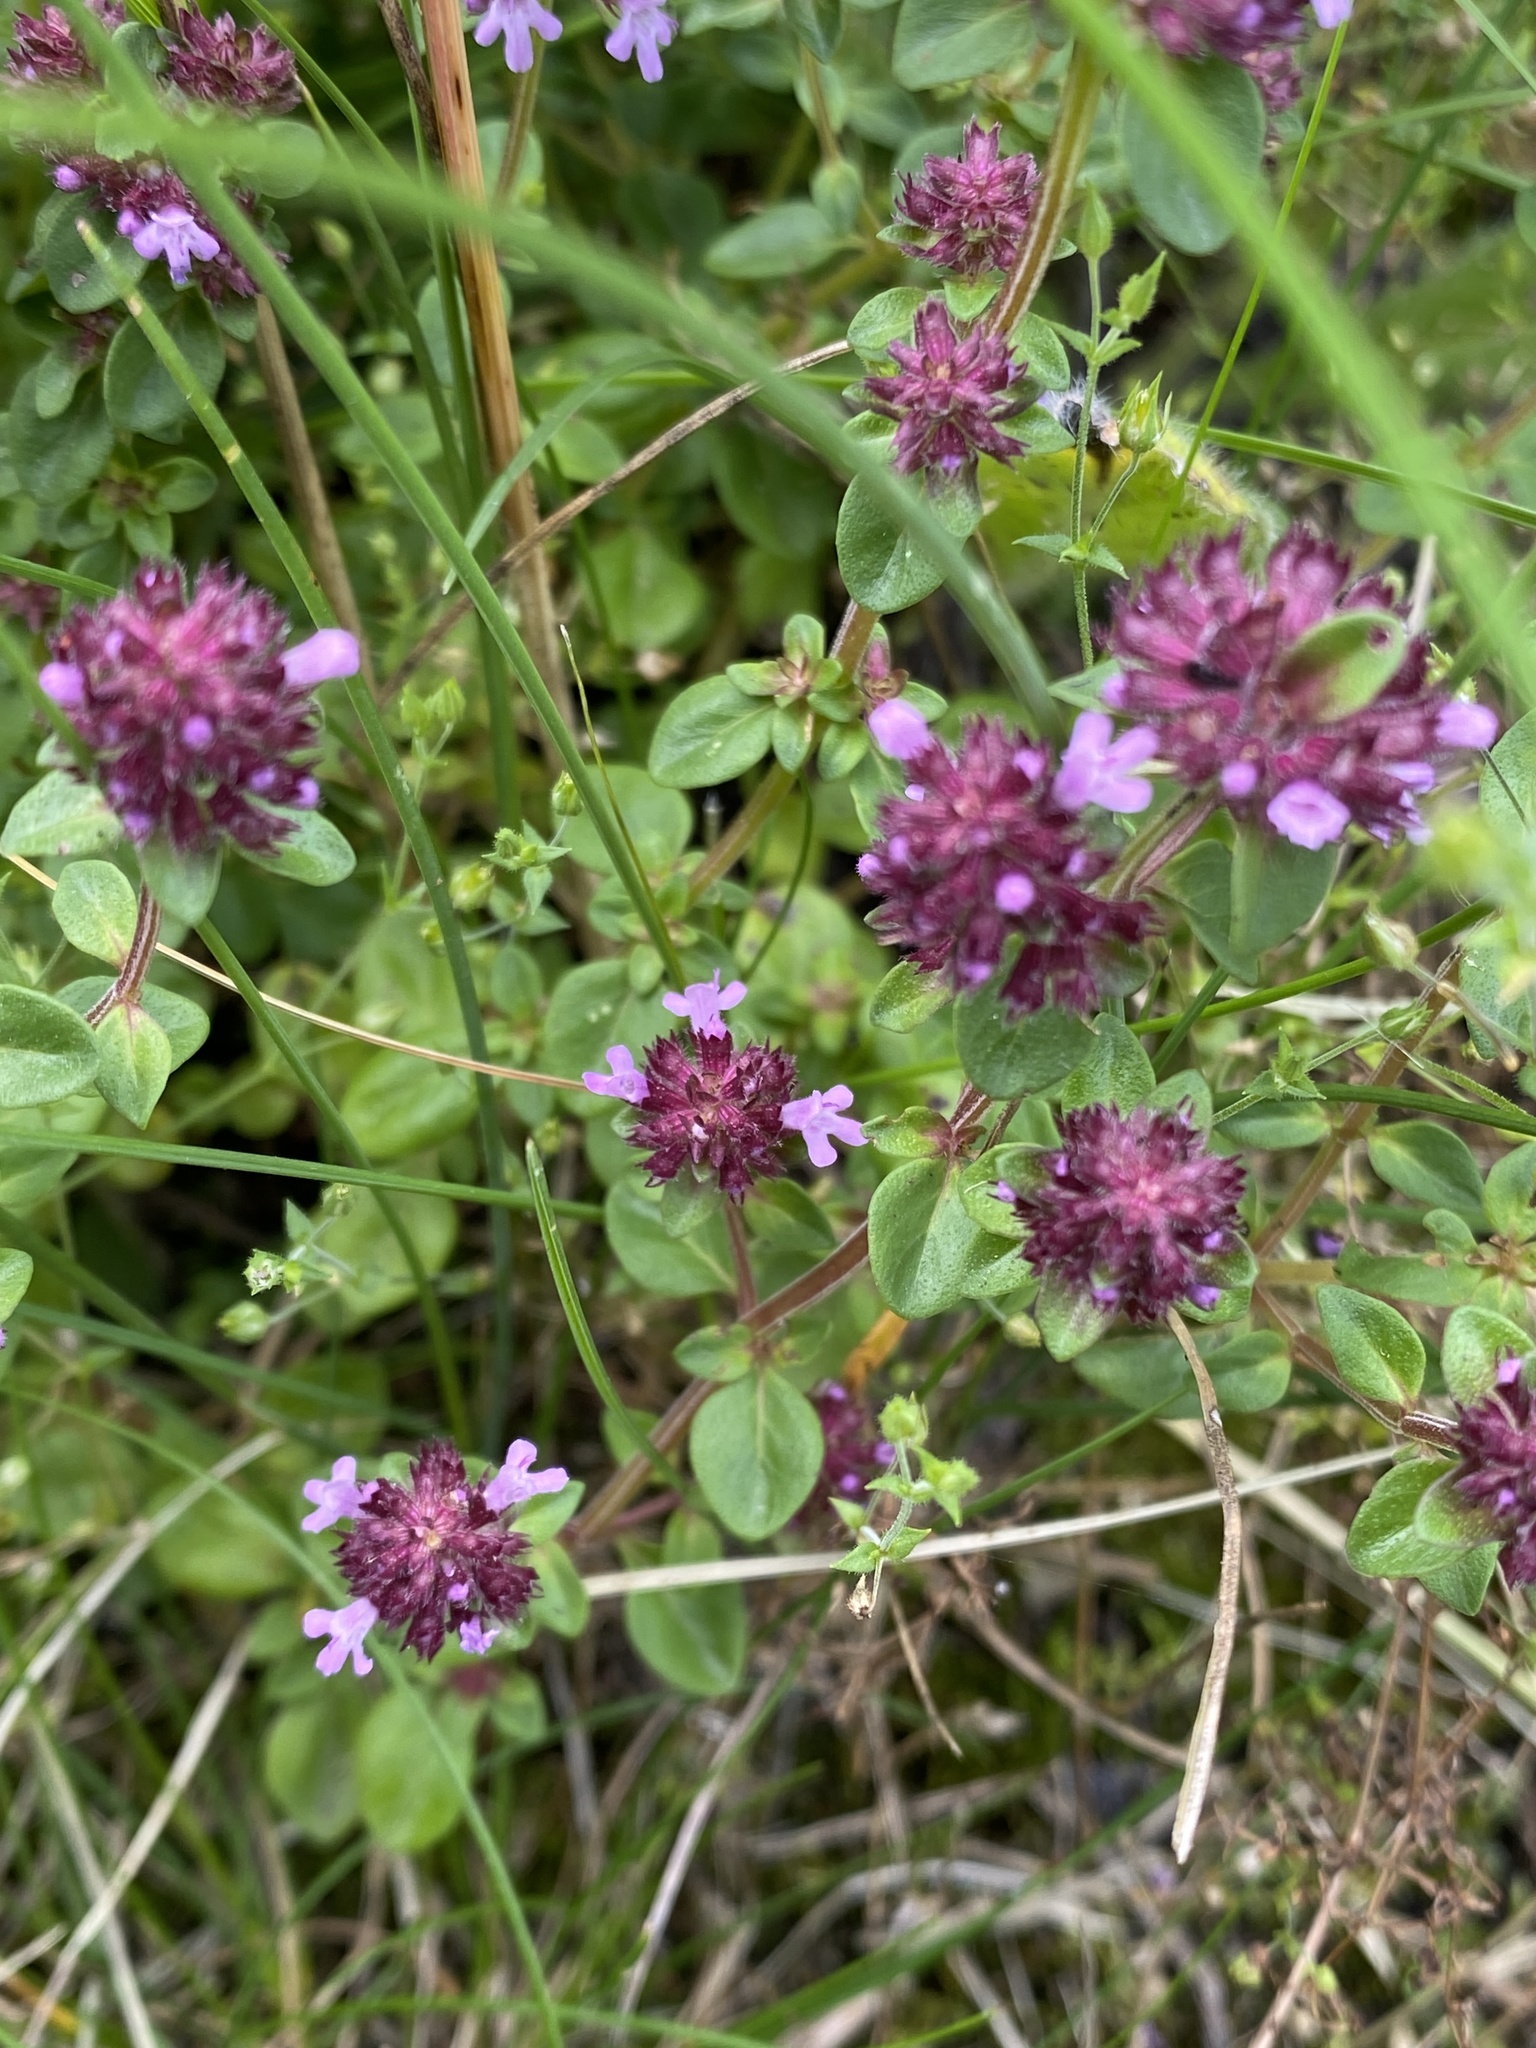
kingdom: Plantae
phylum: Tracheophyta
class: Magnoliopsida
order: Lamiales
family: Lamiaceae
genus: Thymus
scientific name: Thymus pulegioides
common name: Large thyme
